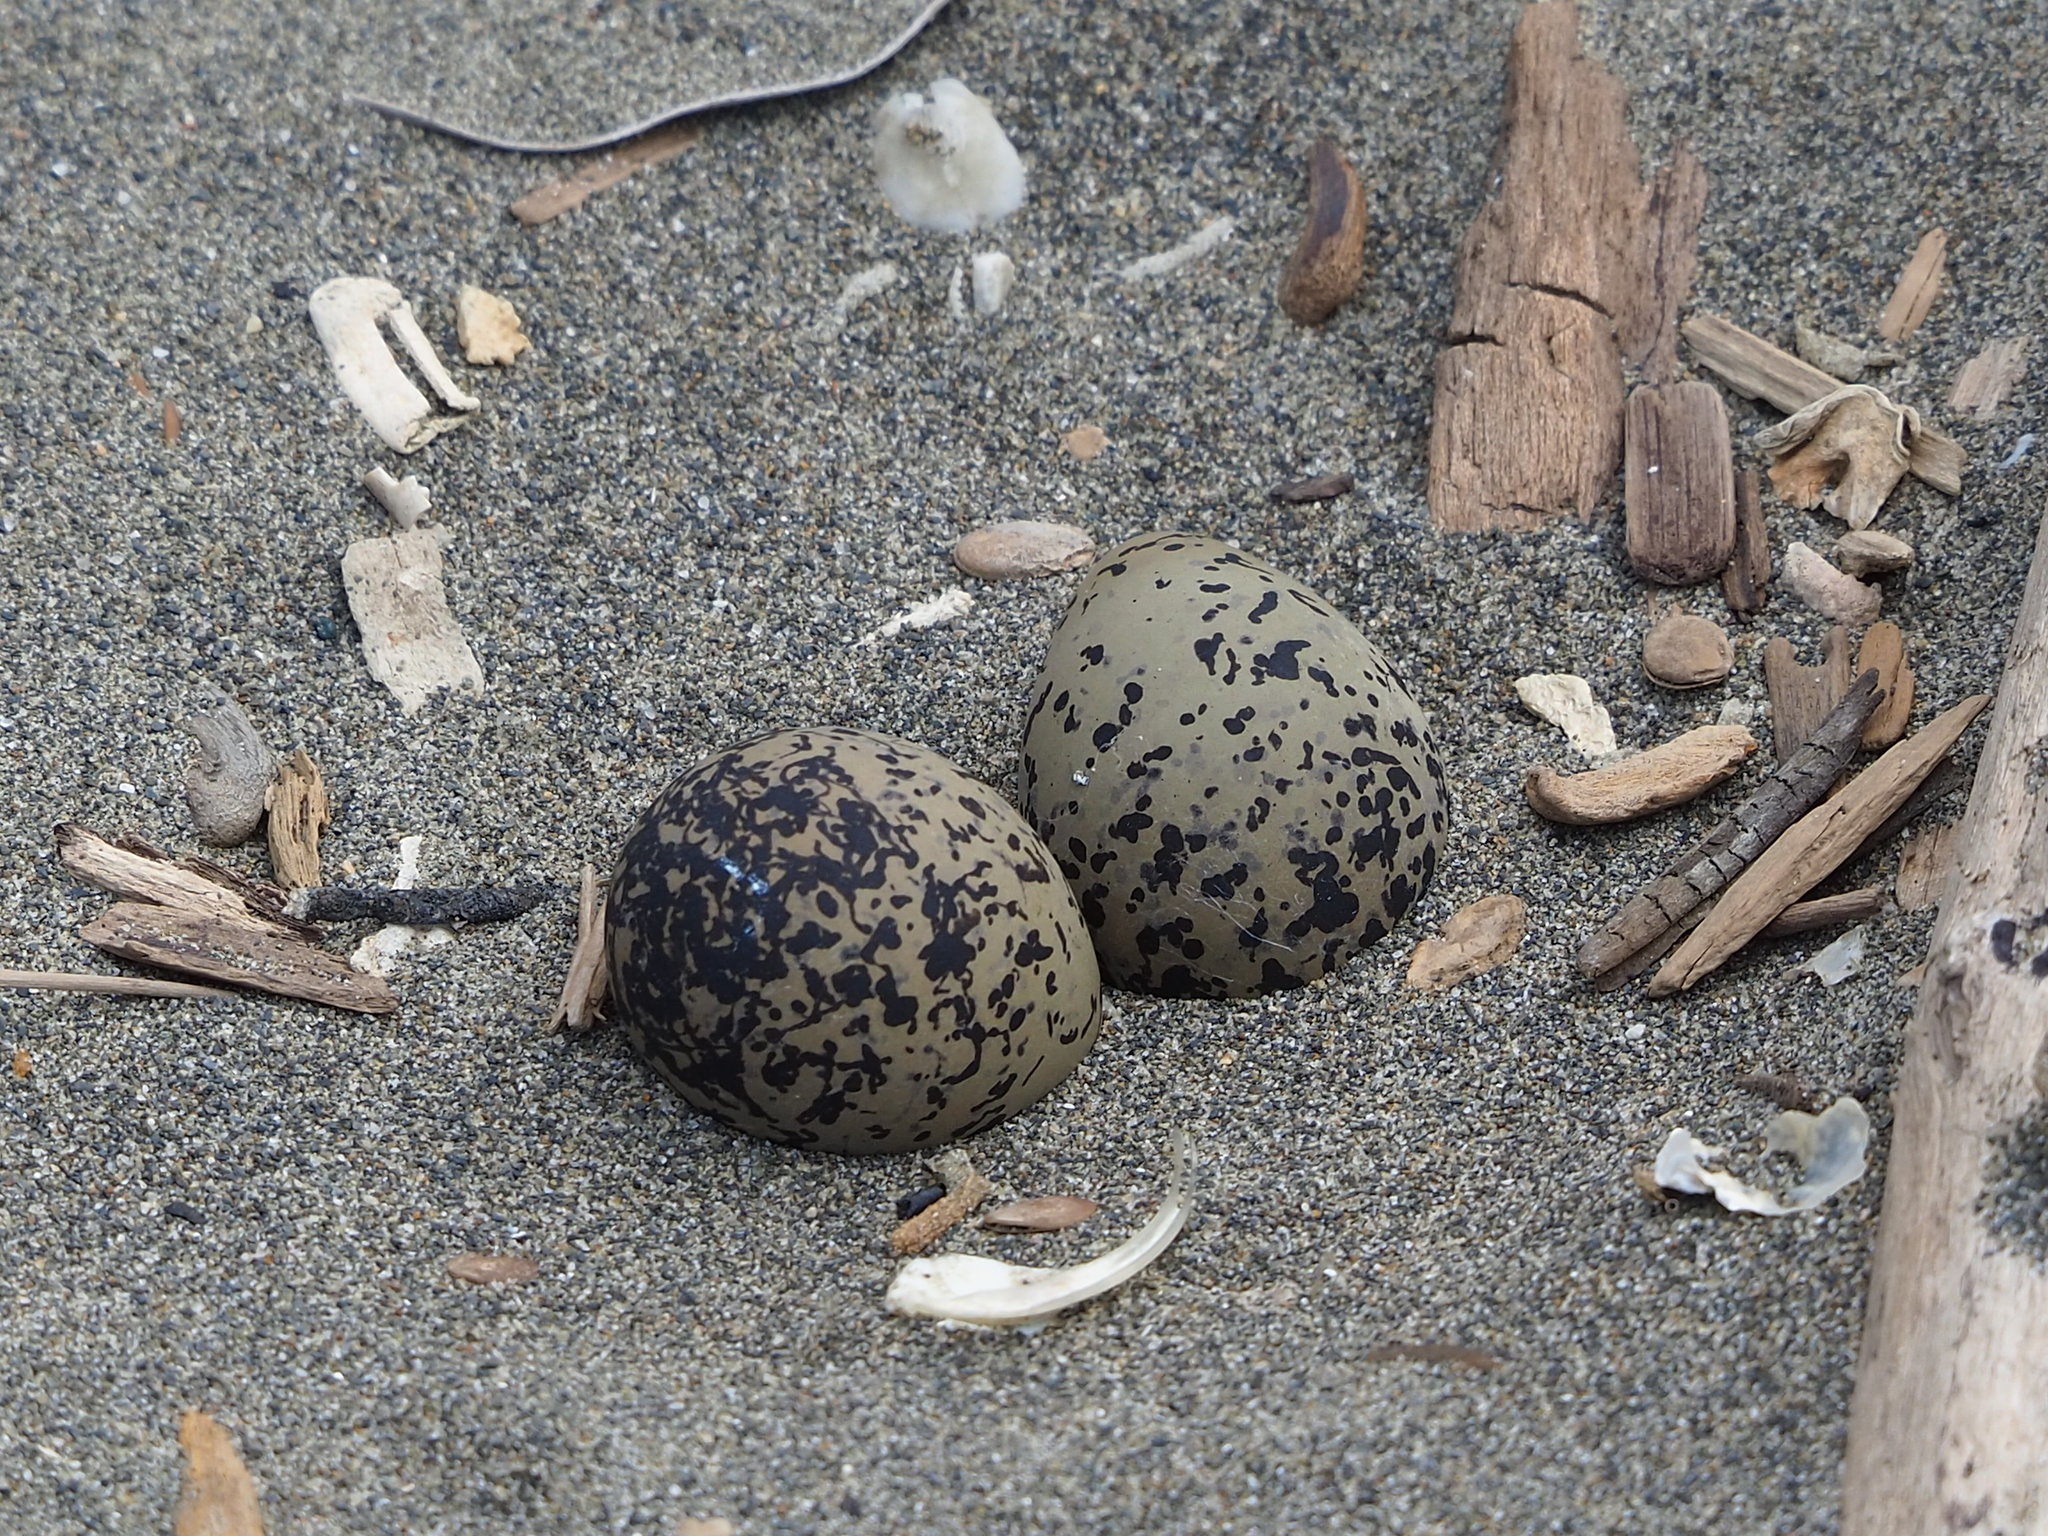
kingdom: Animalia
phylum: Chordata
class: Aves
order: Charadriiformes
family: Charadriidae
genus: Charadrius
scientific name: Charadrius alexandrinus
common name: Kentish plover
